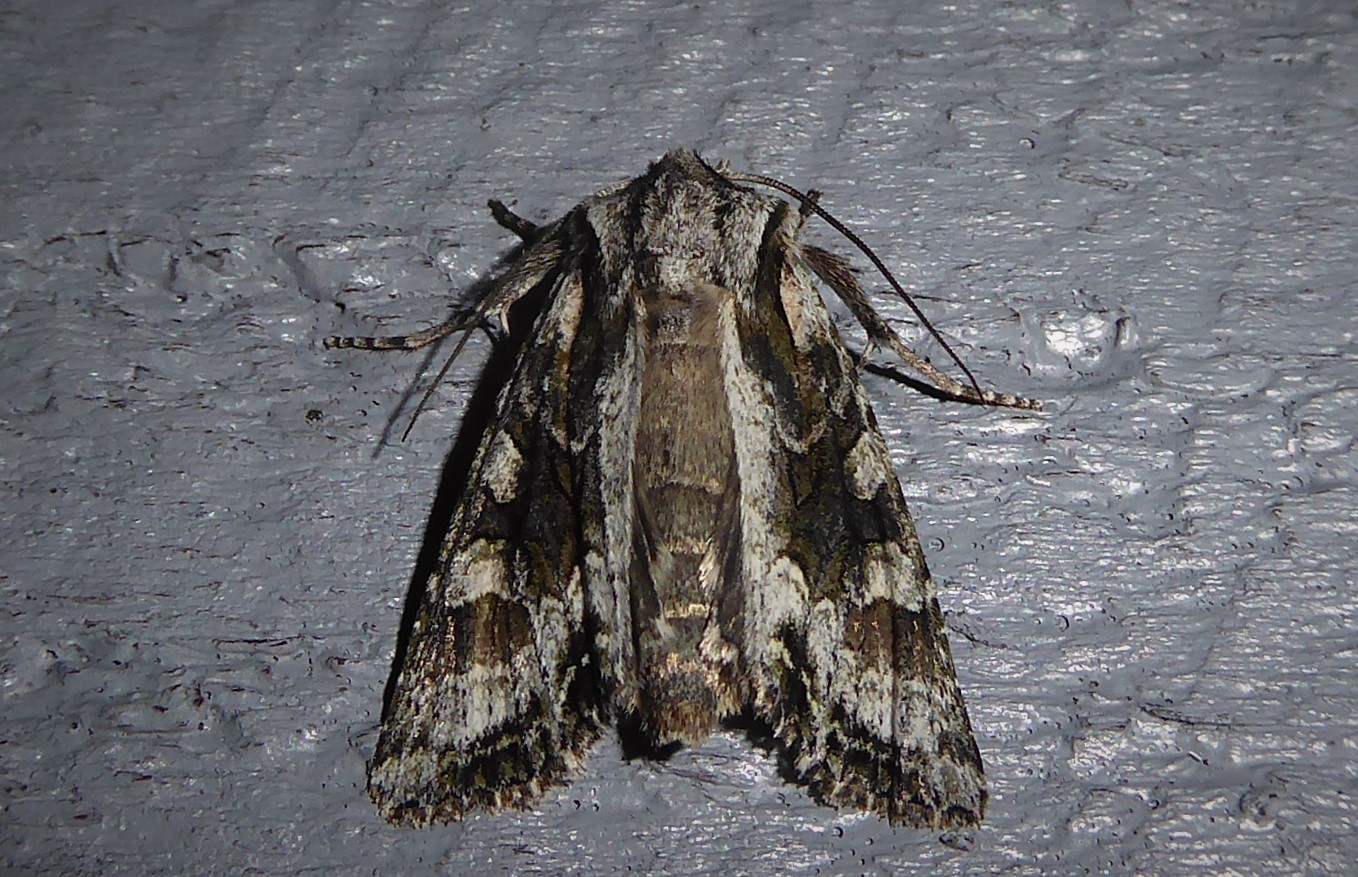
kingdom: Animalia
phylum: Arthropoda
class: Insecta
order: Lepidoptera
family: Noctuidae
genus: Ichneutica
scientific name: Ichneutica mutans
